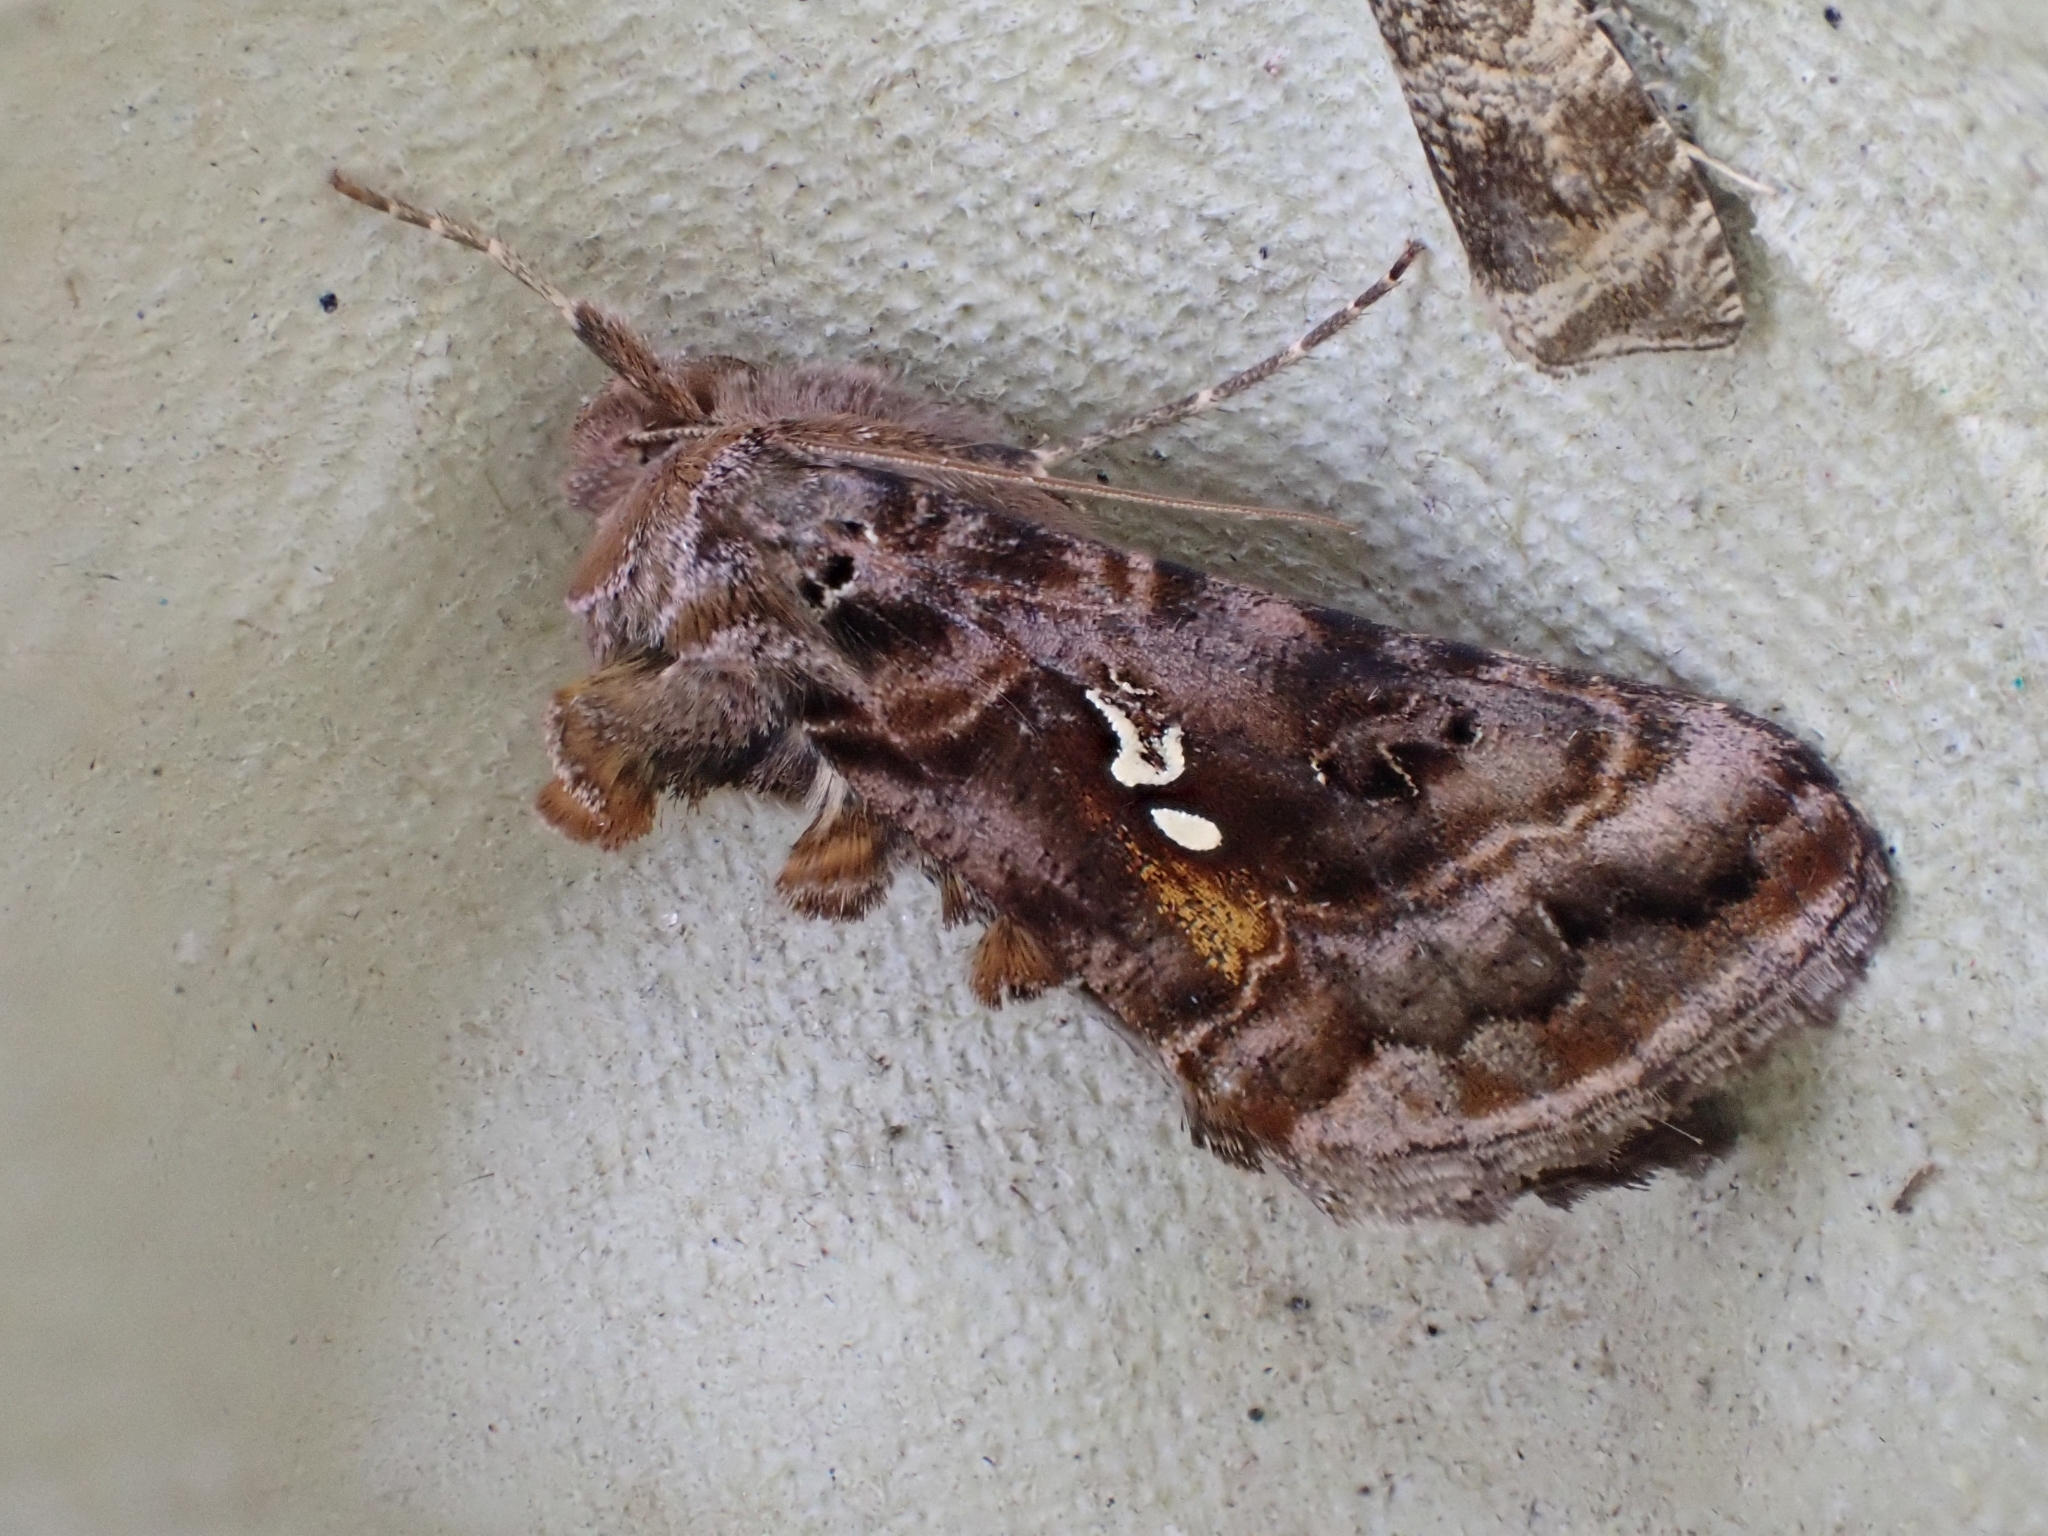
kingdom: Animalia
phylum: Arthropoda
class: Insecta
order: Lepidoptera
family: Noctuidae
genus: Autographa
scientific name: Autographa pulchrina
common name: Beautiful golden y
